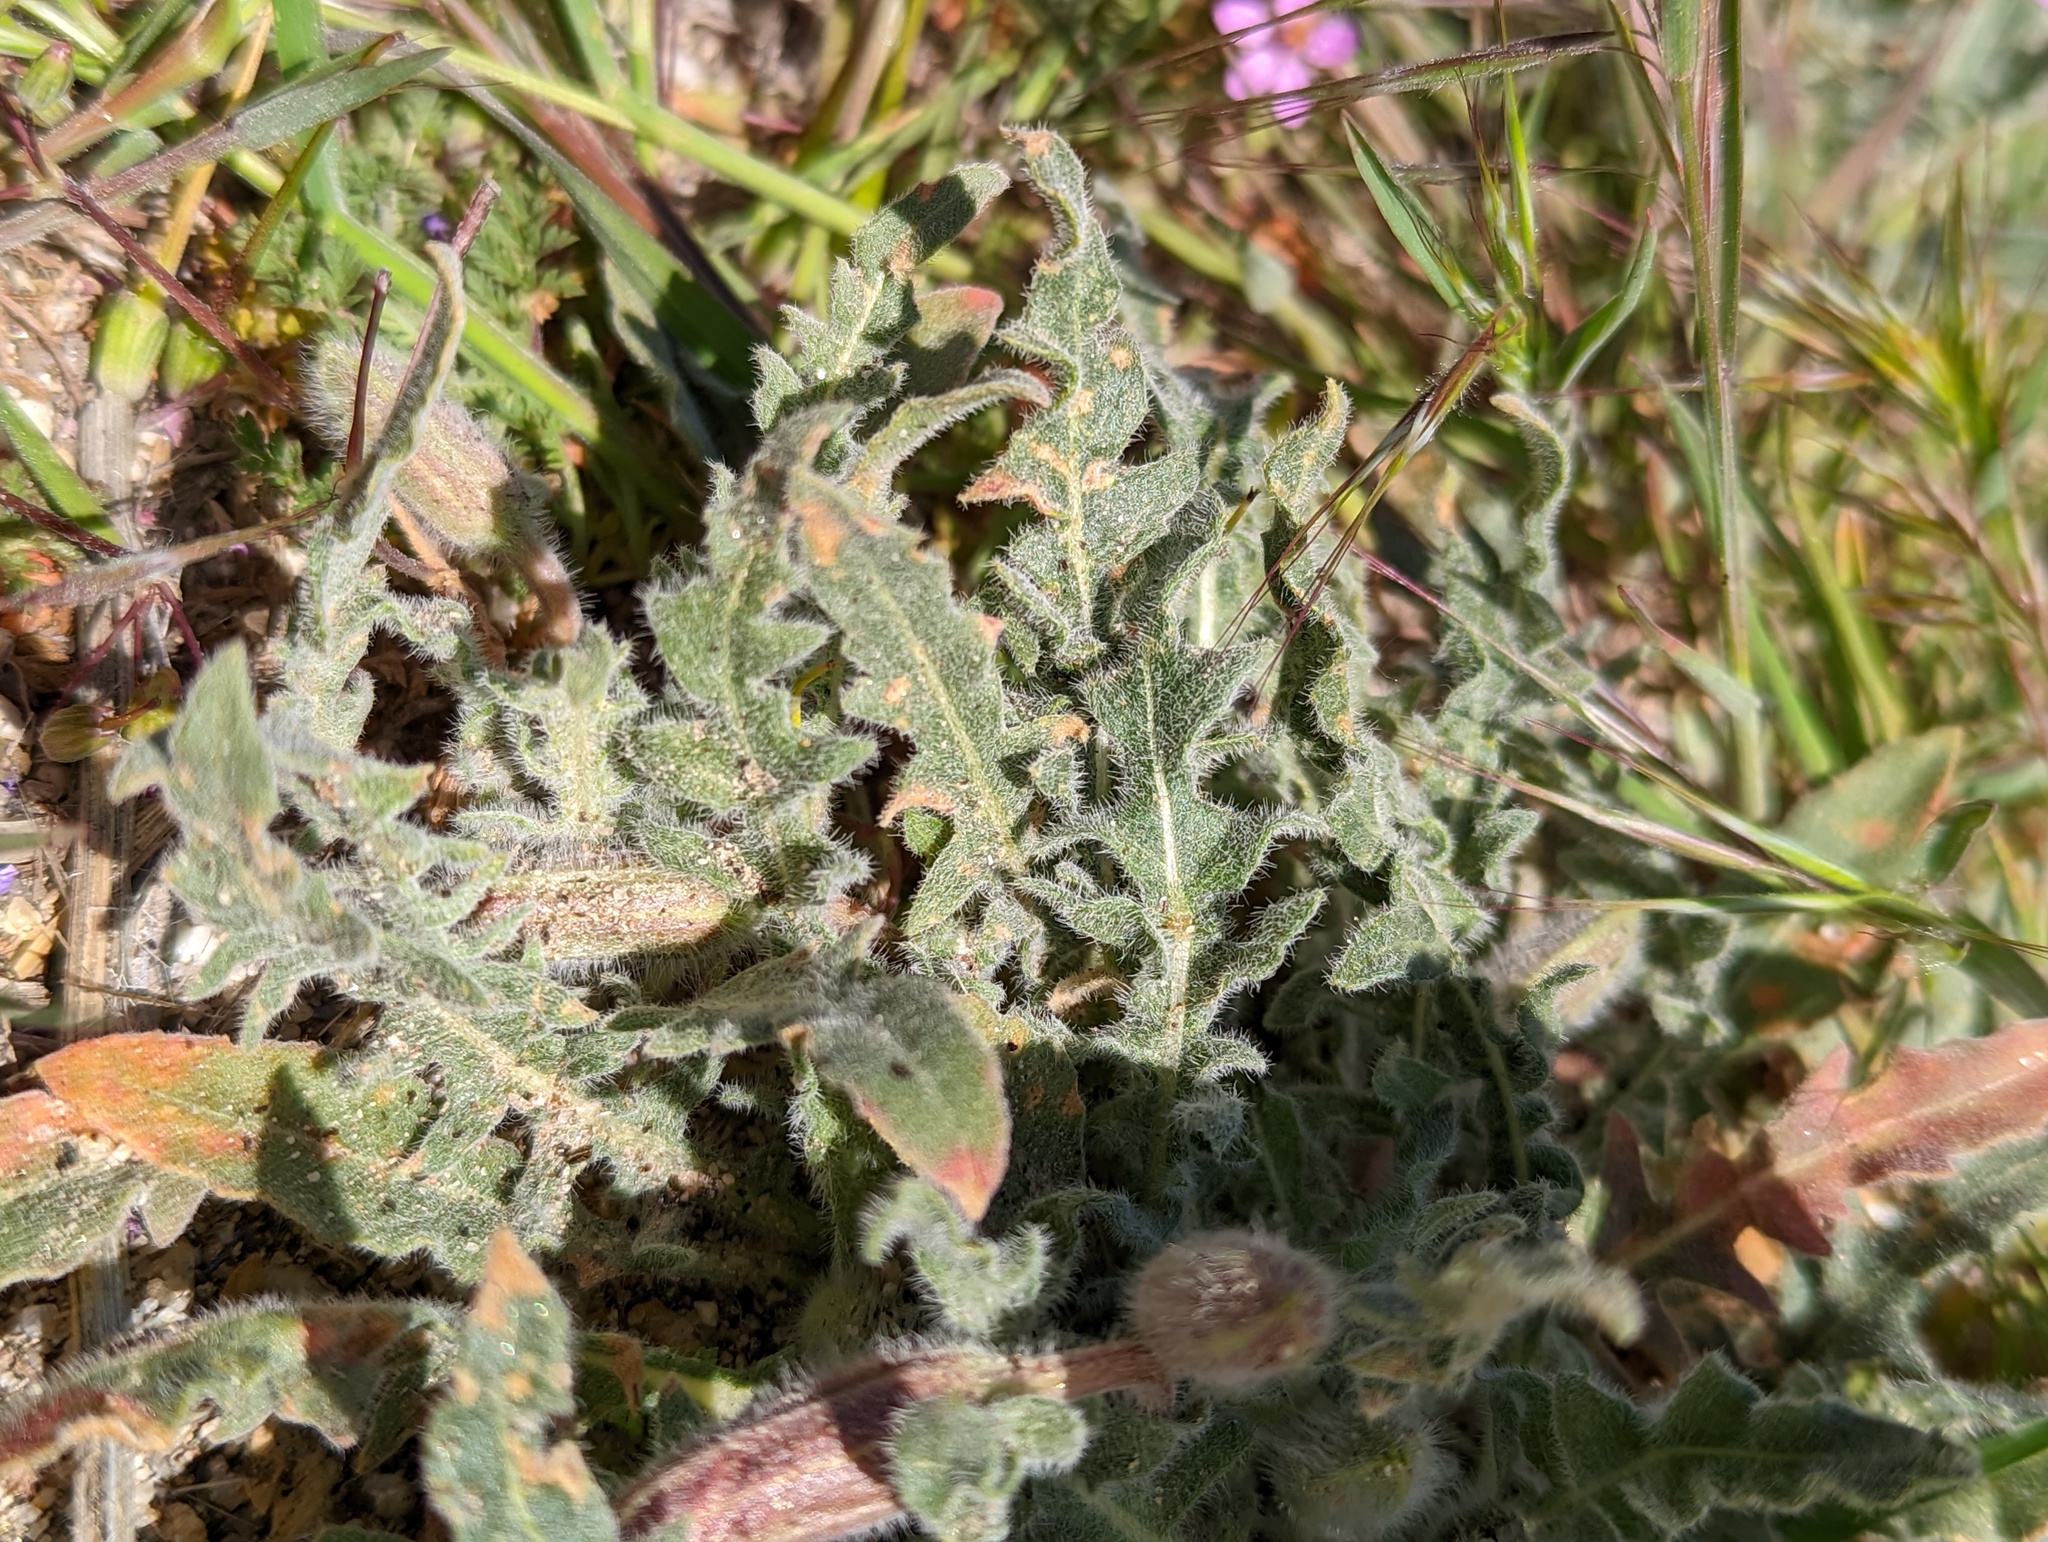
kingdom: Plantae
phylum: Tracheophyta
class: Magnoliopsida
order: Myrtales
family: Onagraceae
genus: Oenothera
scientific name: Oenothera californica
